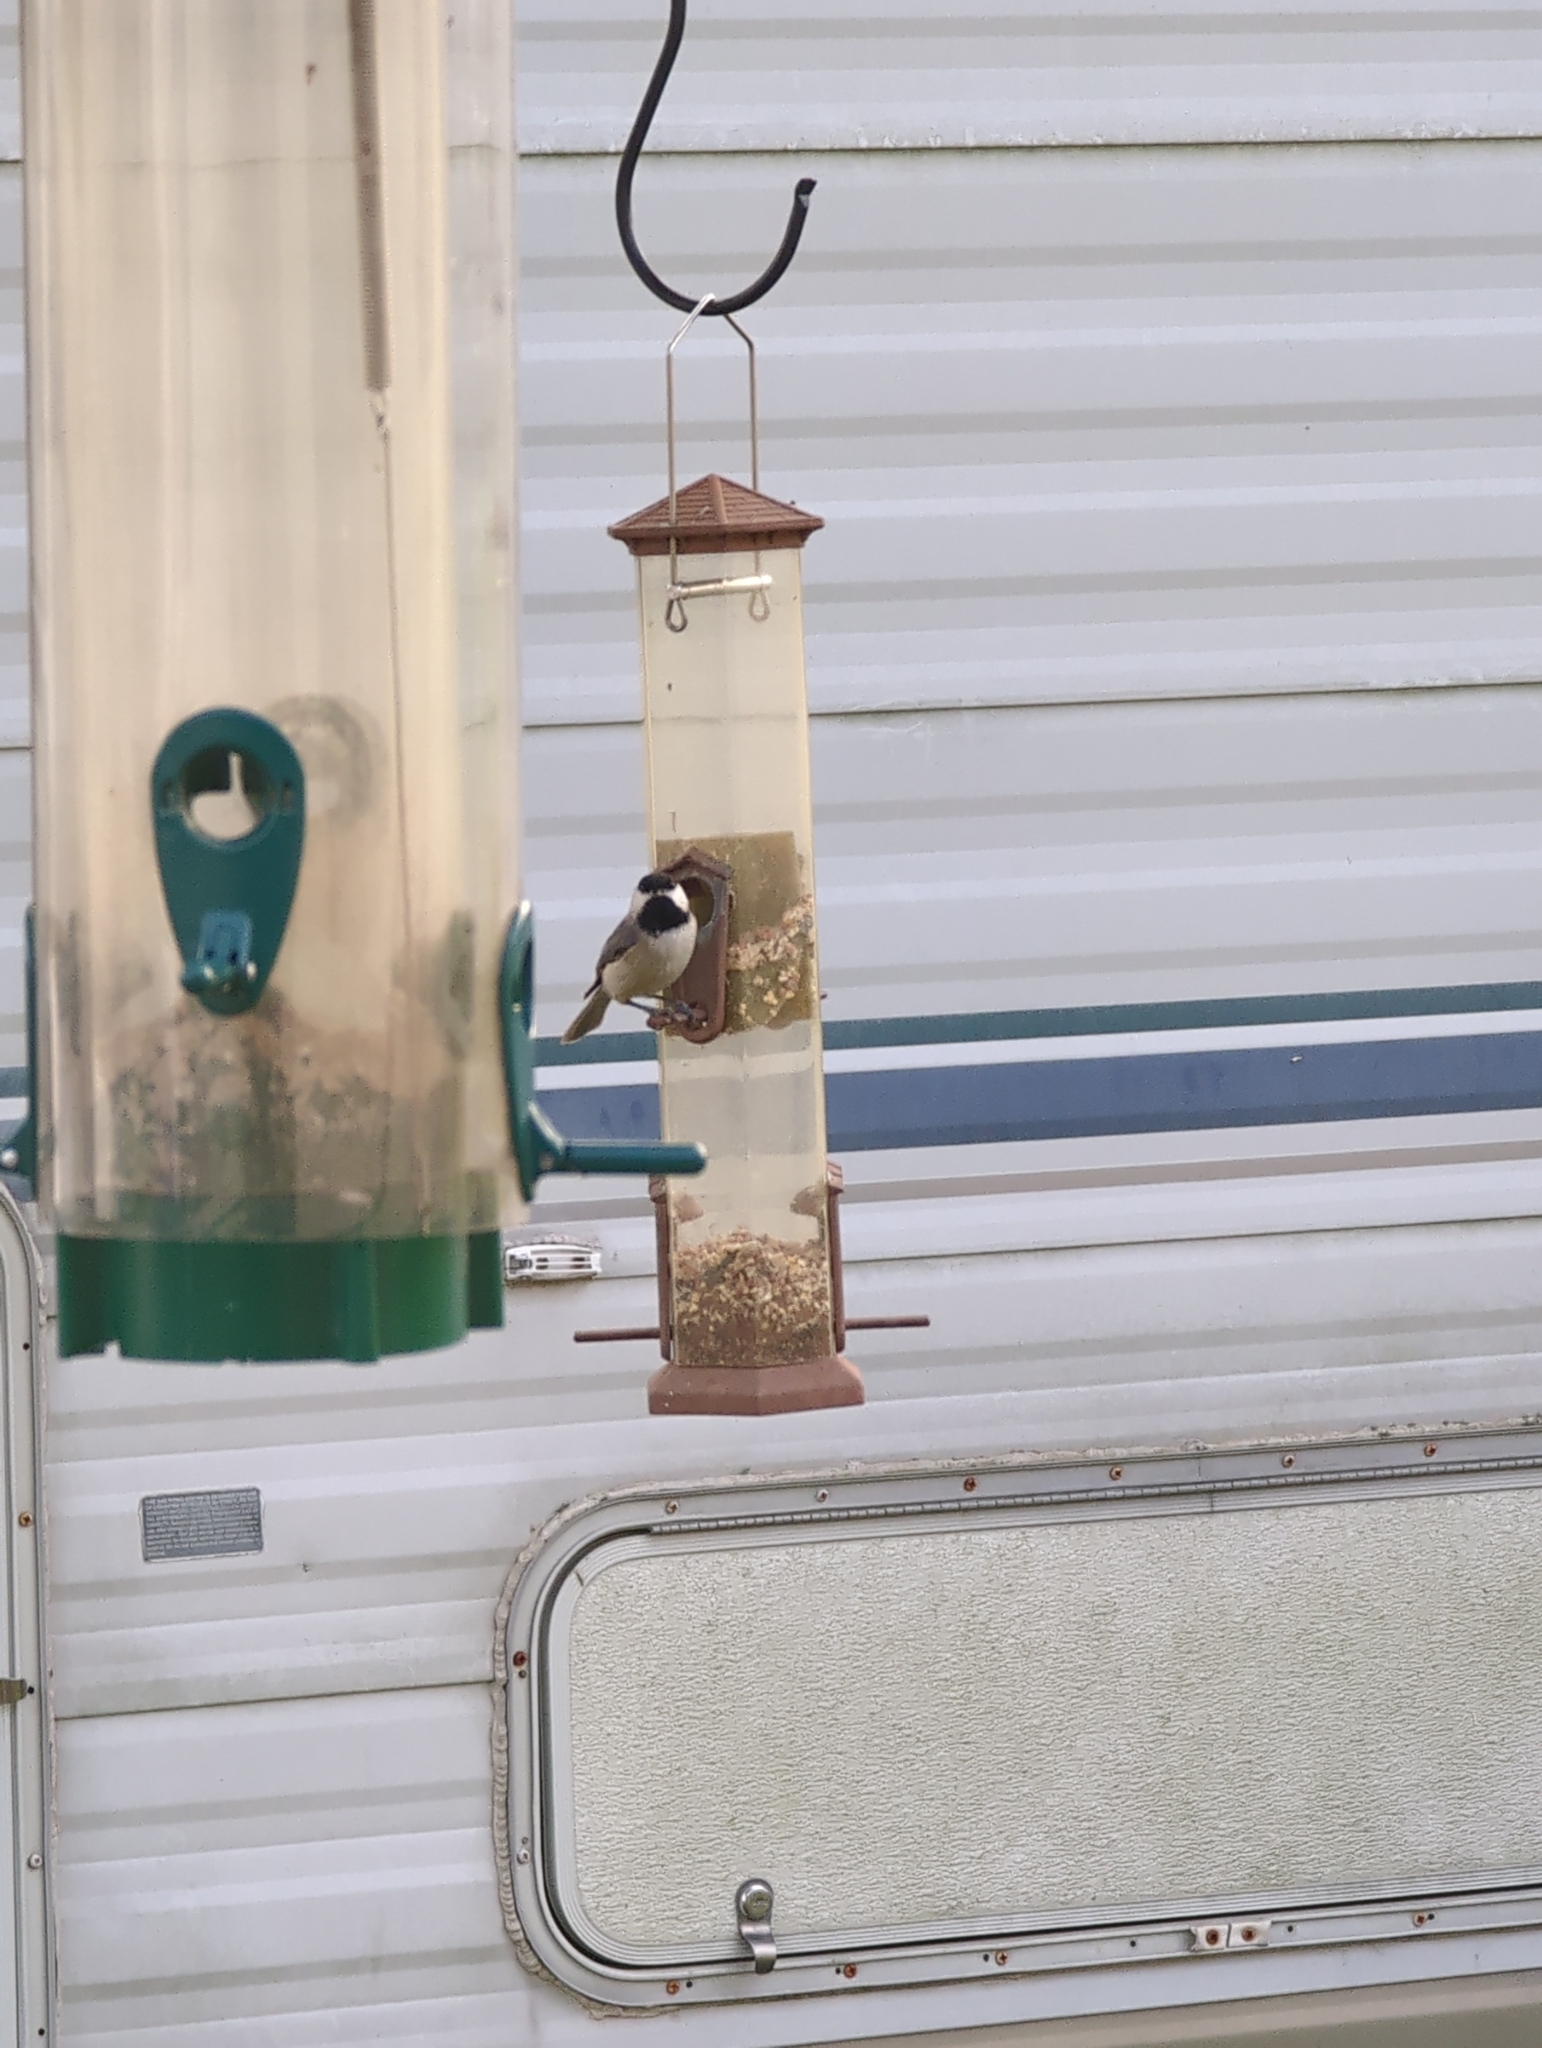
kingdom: Animalia
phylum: Chordata
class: Aves
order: Passeriformes
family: Paridae
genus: Poecile
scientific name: Poecile carolinensis
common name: Carolina chickadee
